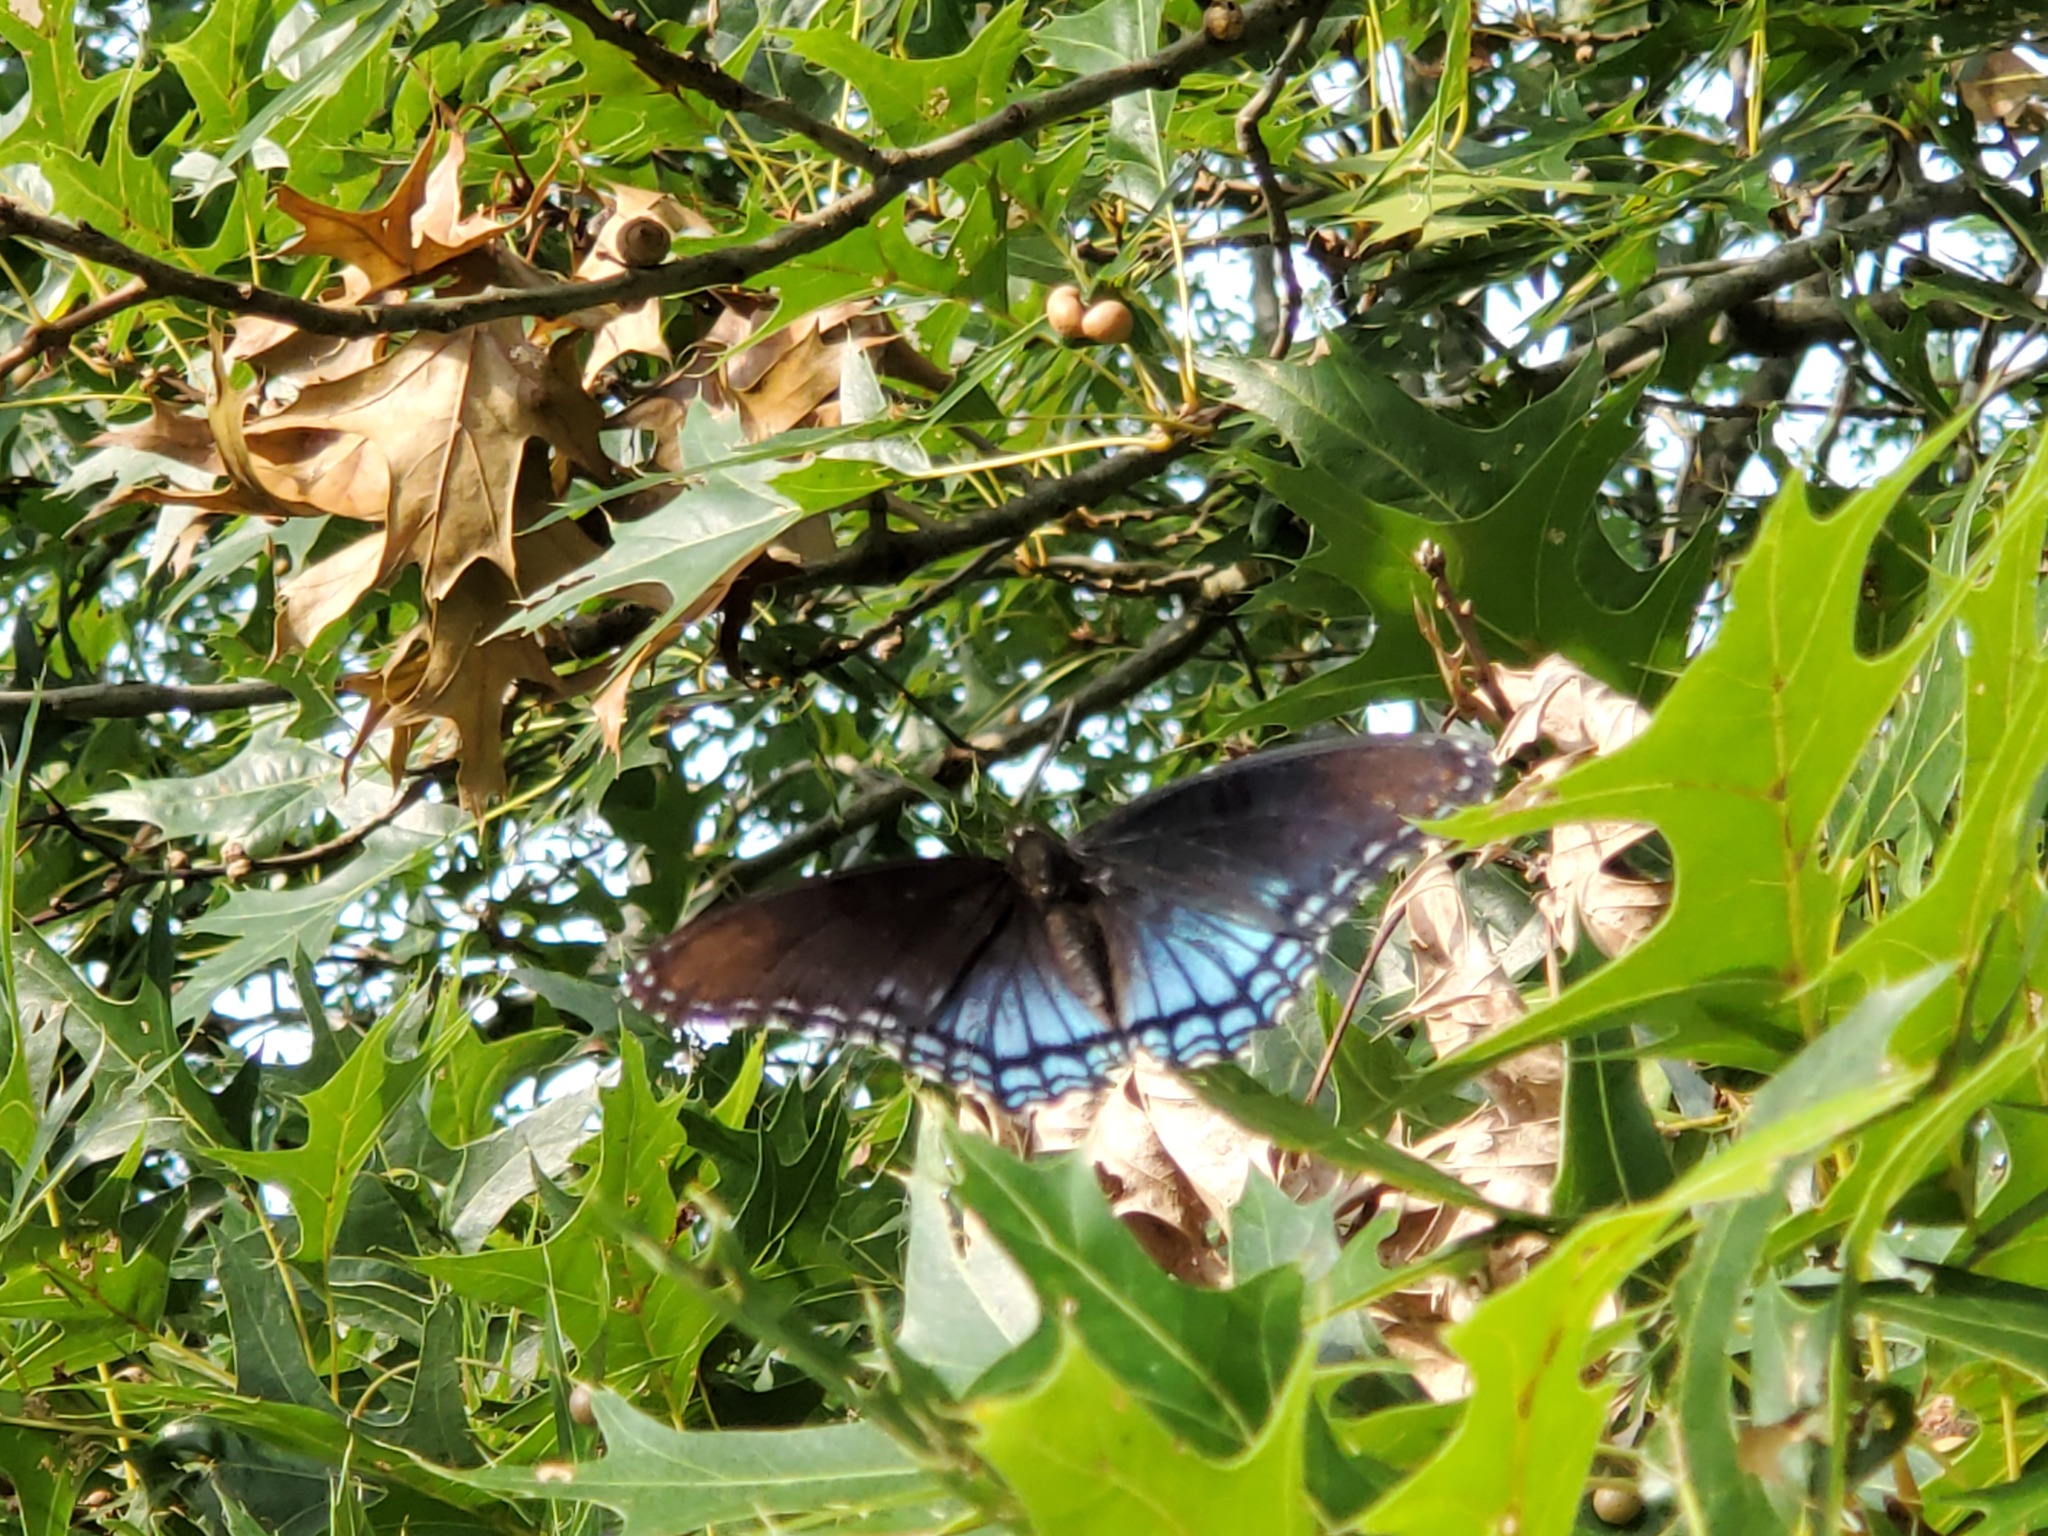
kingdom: Animalia
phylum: Arthropoda
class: Insecta
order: Lepidoptera
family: Nymphalidae
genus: Limenitis
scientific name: Limenitis arthemis
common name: Red-spotted admiral
